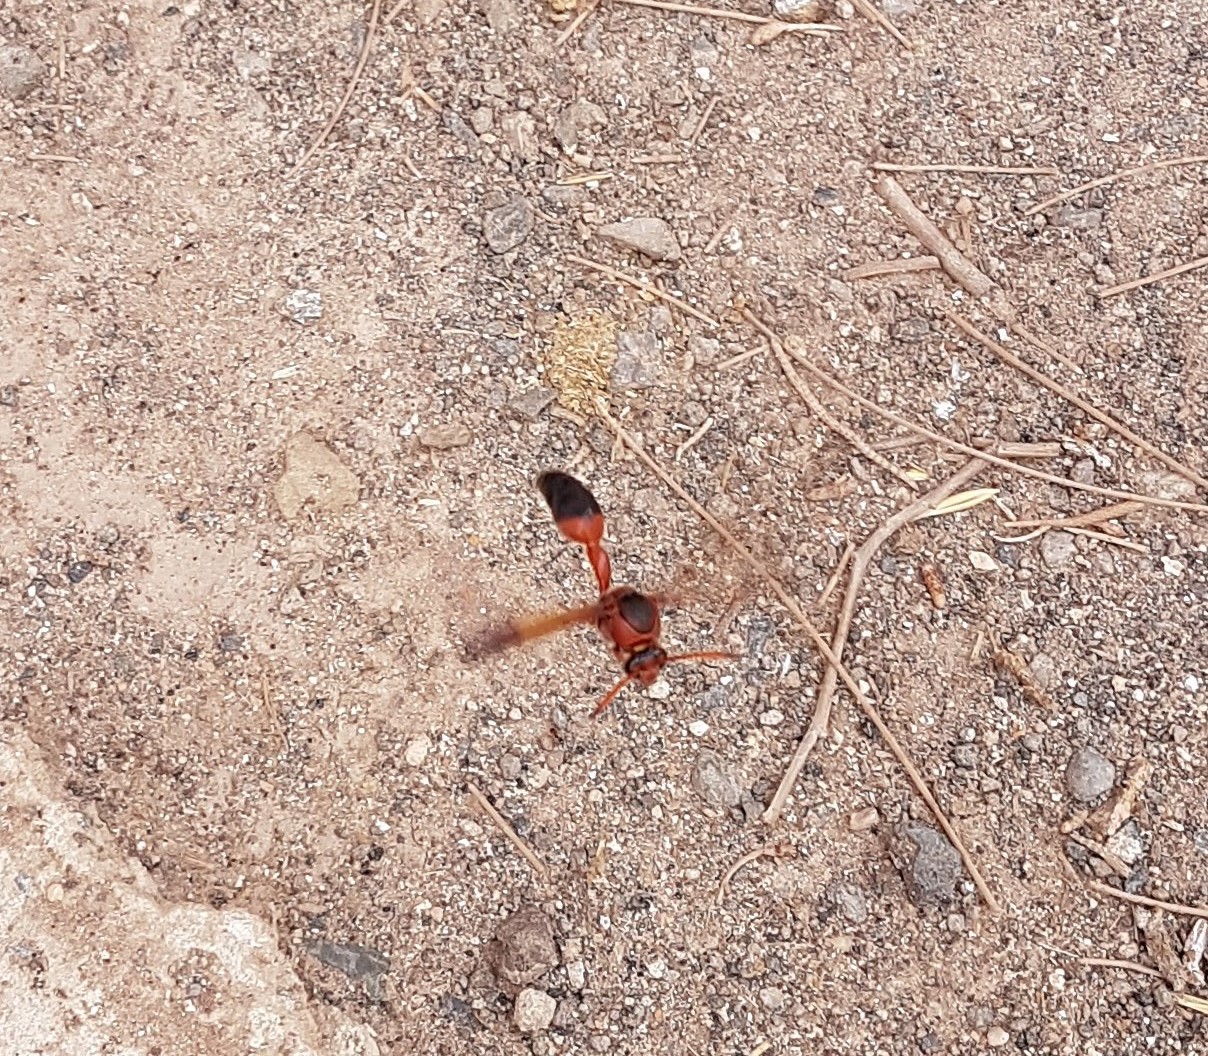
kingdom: Animalia
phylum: Arthropoda
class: Insecta
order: Hymenoptera
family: Eumenidae
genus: Delta
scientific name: Delta dimidiatipenne
